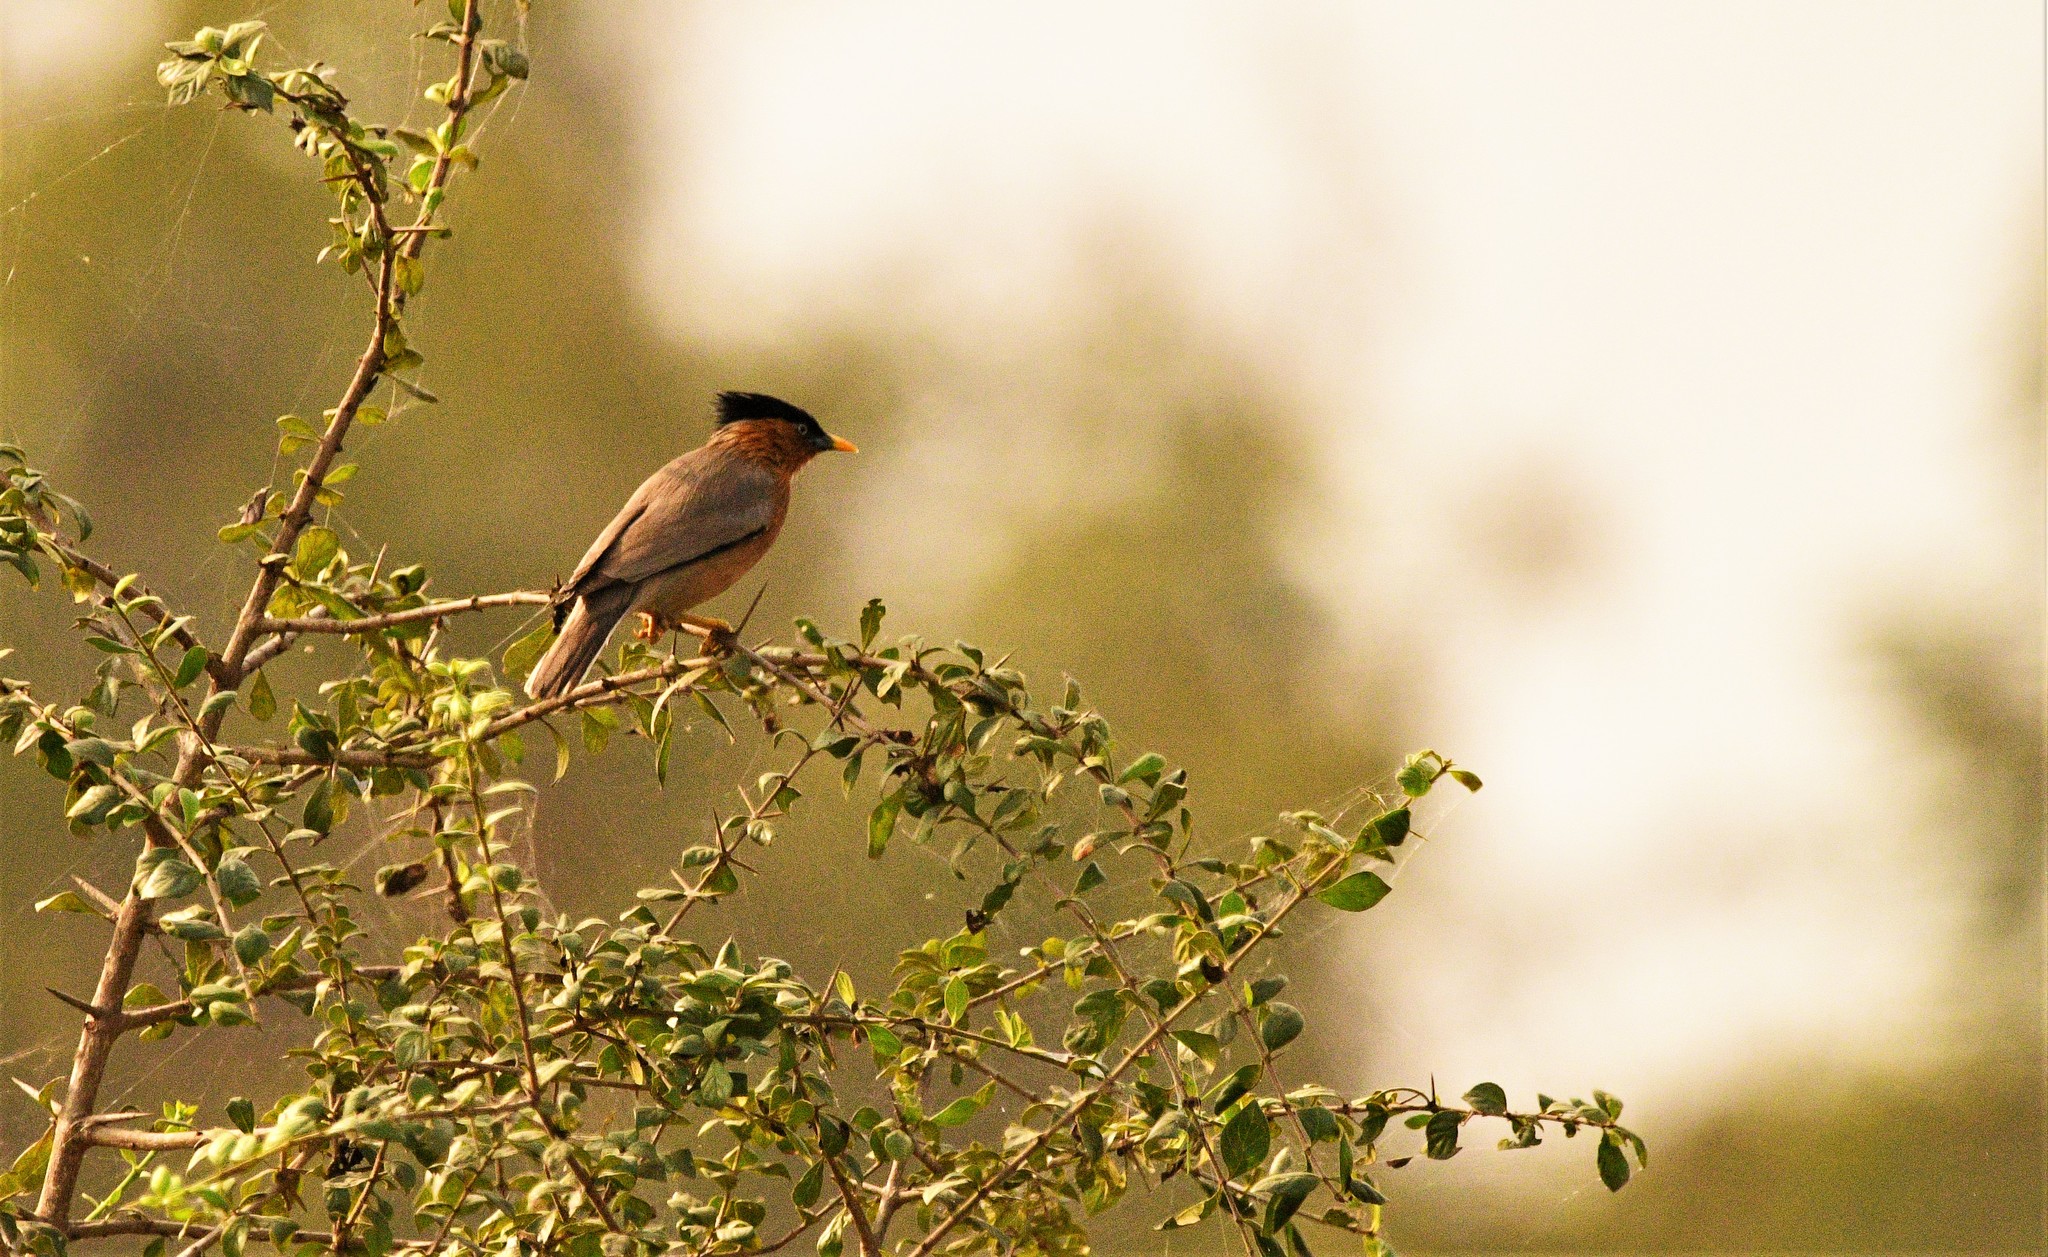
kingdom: Animalia
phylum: Chordata
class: Aves
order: Passeriformes
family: Sturnidae
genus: Sturnia
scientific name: Sturnia pagodarum
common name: Brahminy starling
